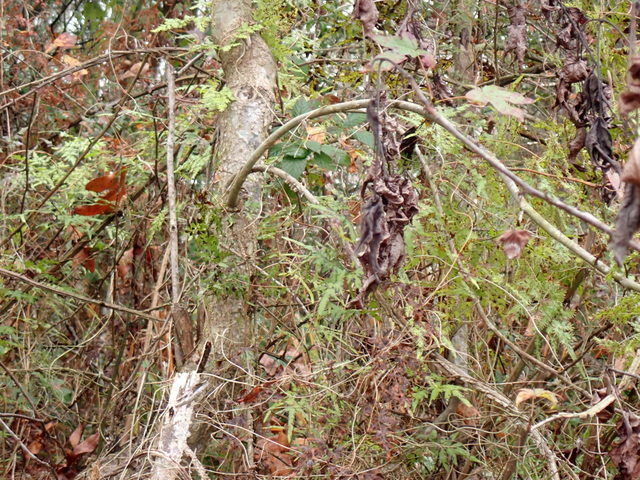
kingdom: Plantae
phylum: Tracheophyta
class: Polypodiopsida
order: Schizaeales
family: Lygodiaceae
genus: Lygodium
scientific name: Lygodium japonicum
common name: Japanese climbing fern
